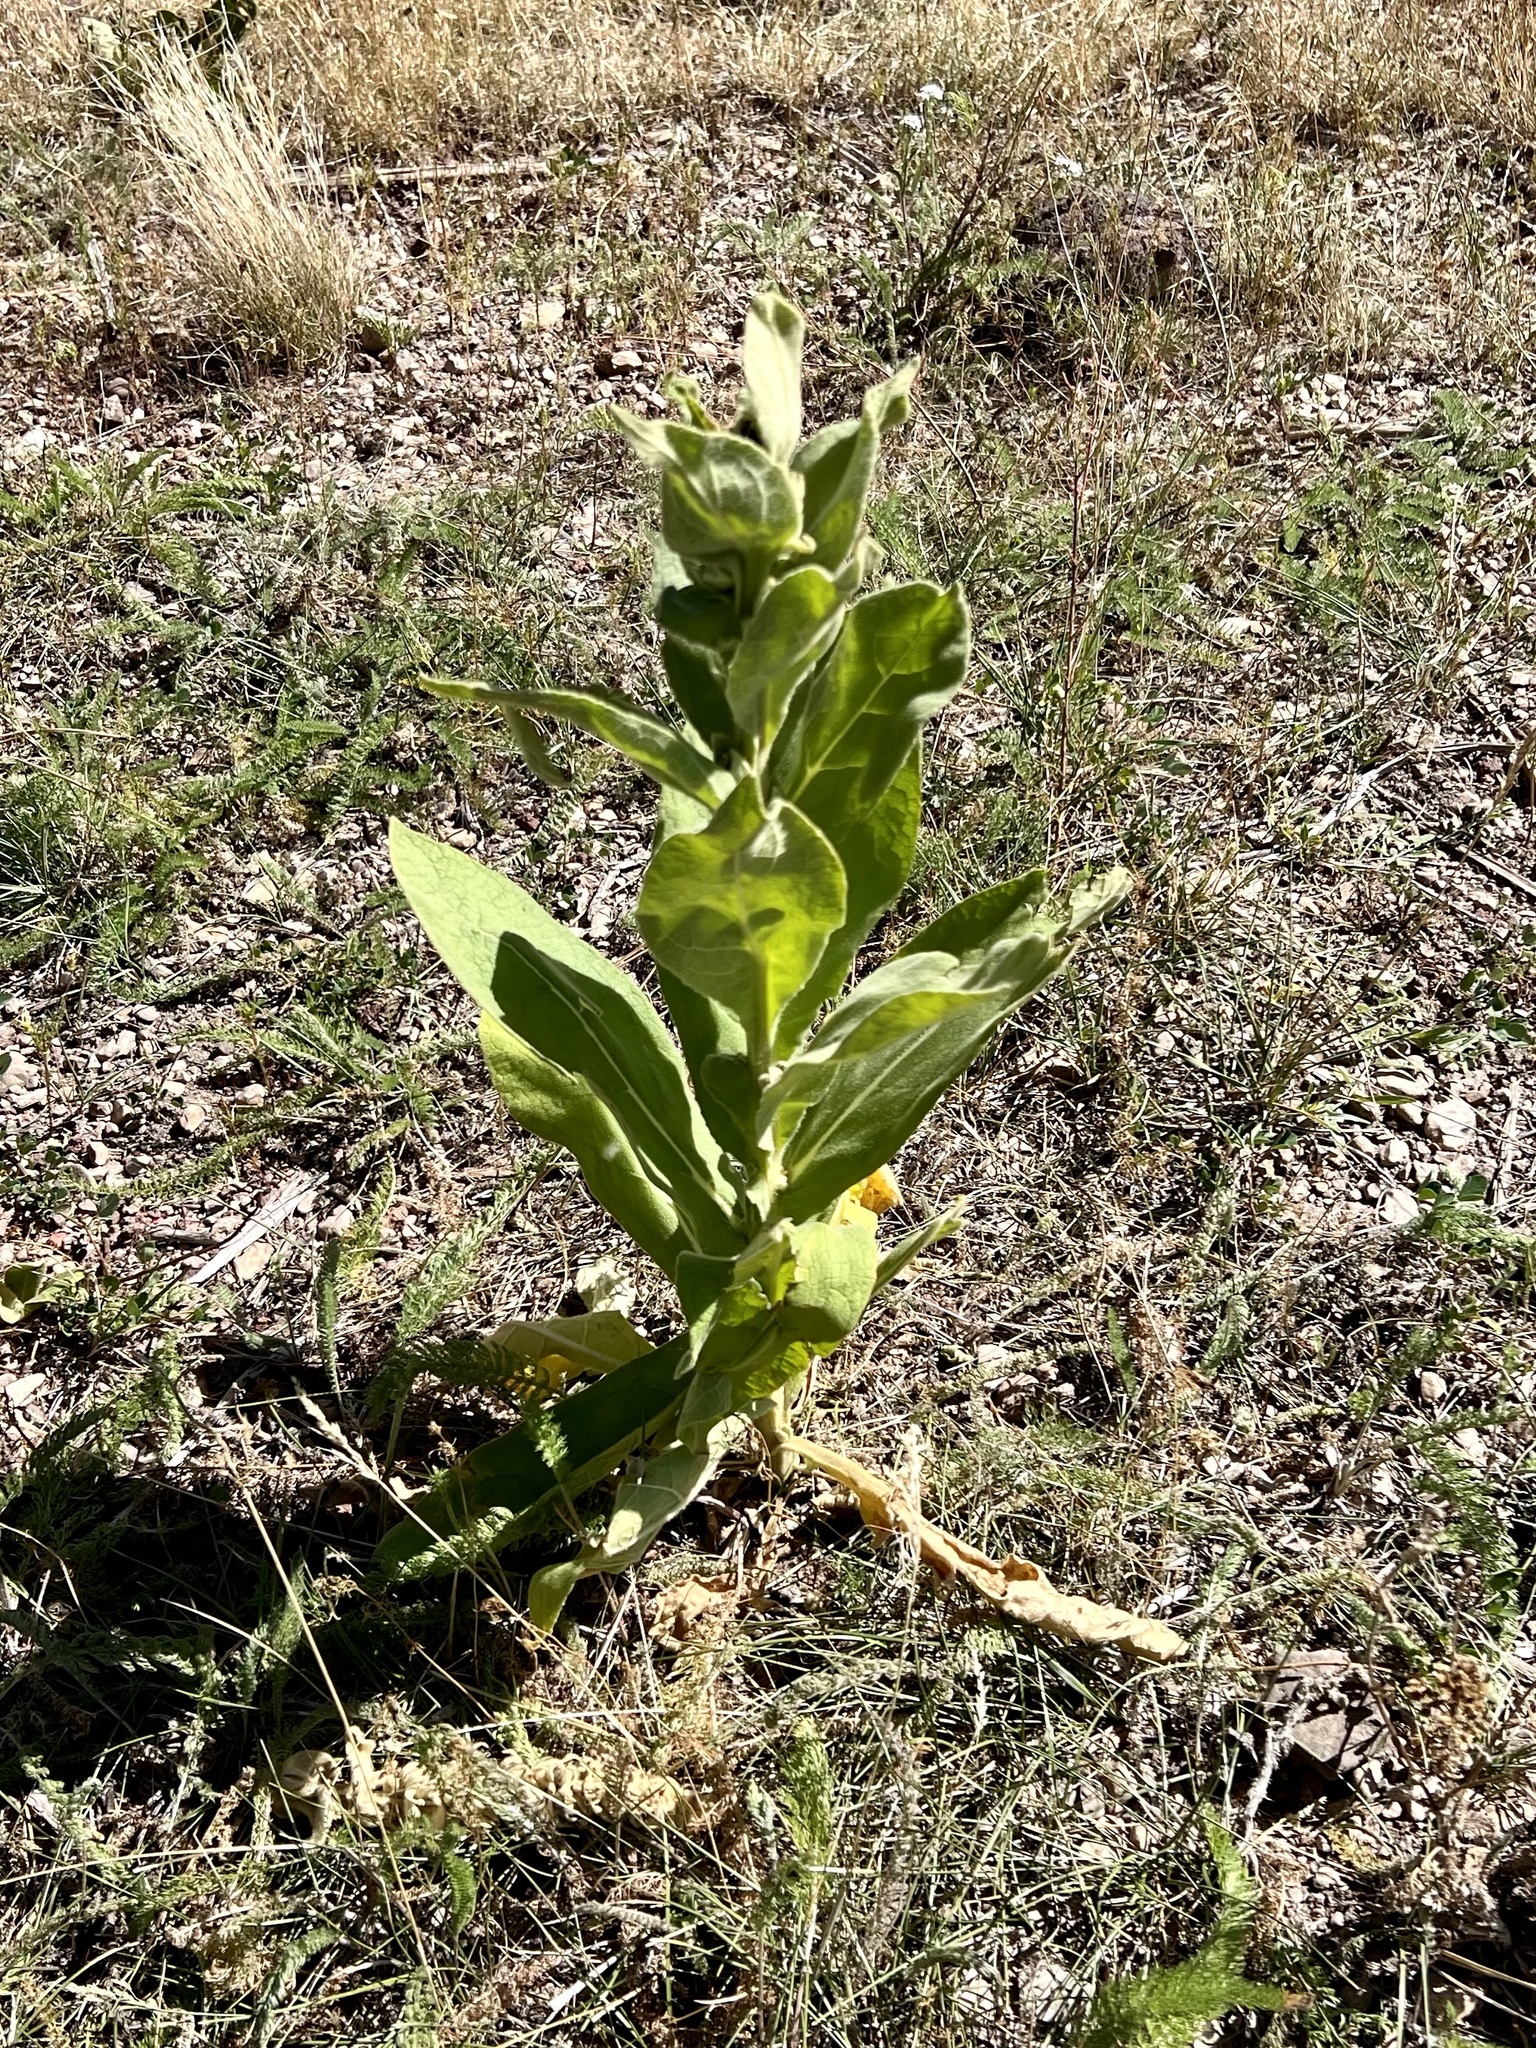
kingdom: Plantae
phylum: Tracheophyta
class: Magnoliopsida
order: Lamiales
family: Scrophulariaceae
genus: Verbascum
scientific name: Verbascum thapsus
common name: Common mullein
